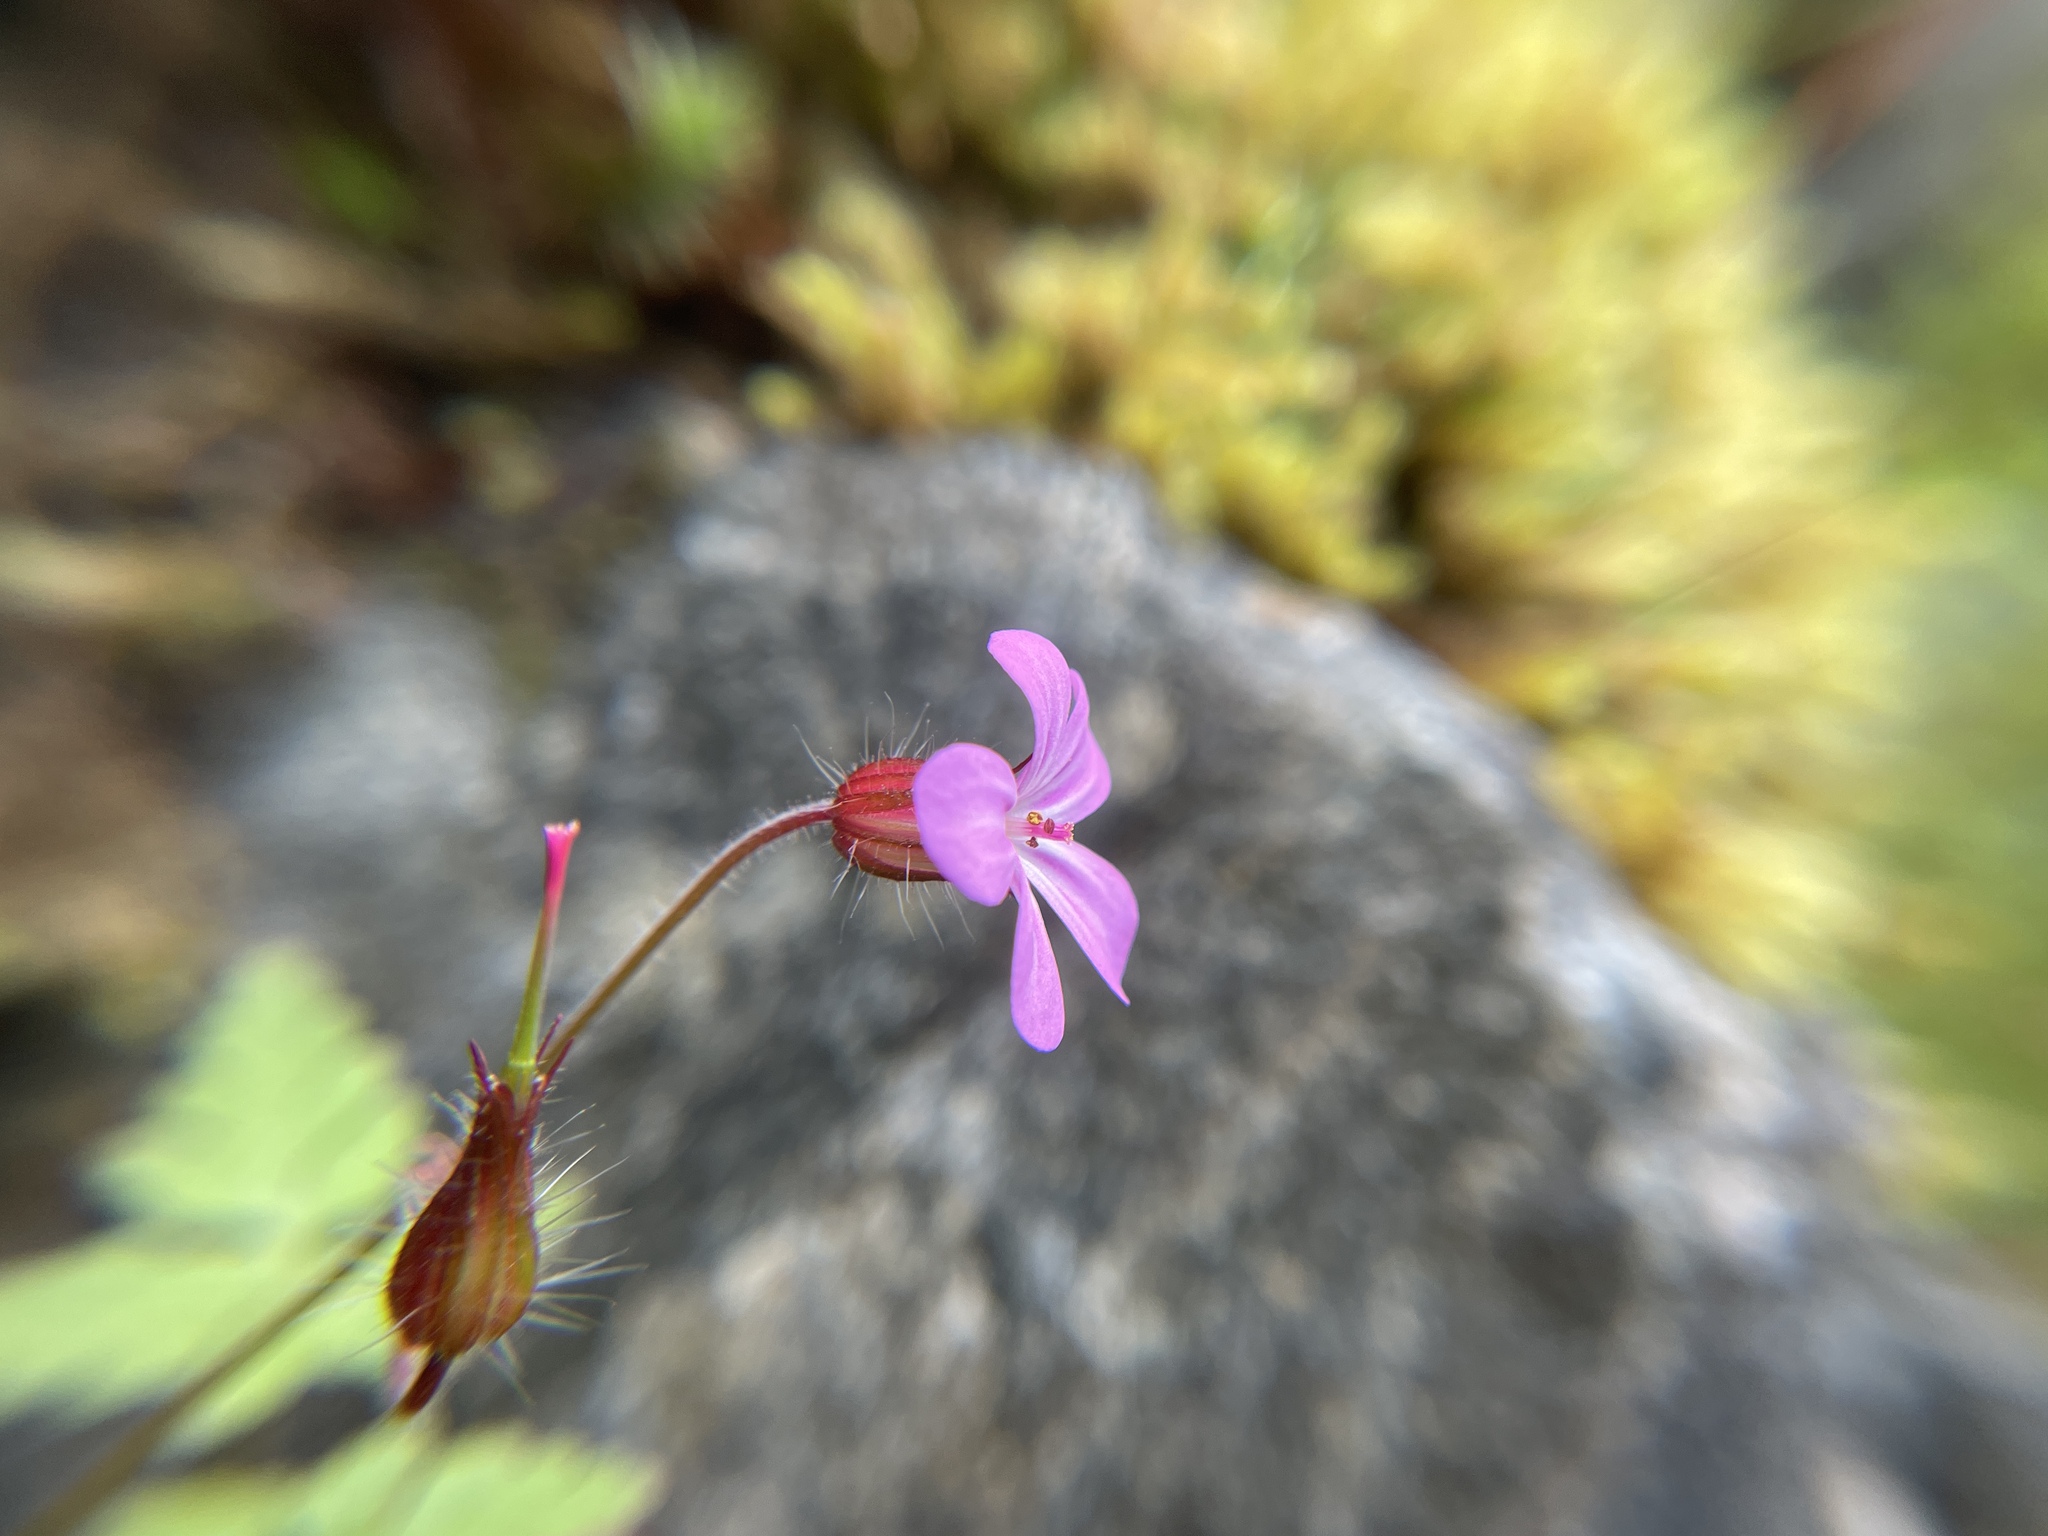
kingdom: Plantae
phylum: Tracheophyta
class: Magnoliopsida
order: Geraniales
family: Geraniaceae
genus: Geranium
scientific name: Geranium robertianum
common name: Herb-robert
